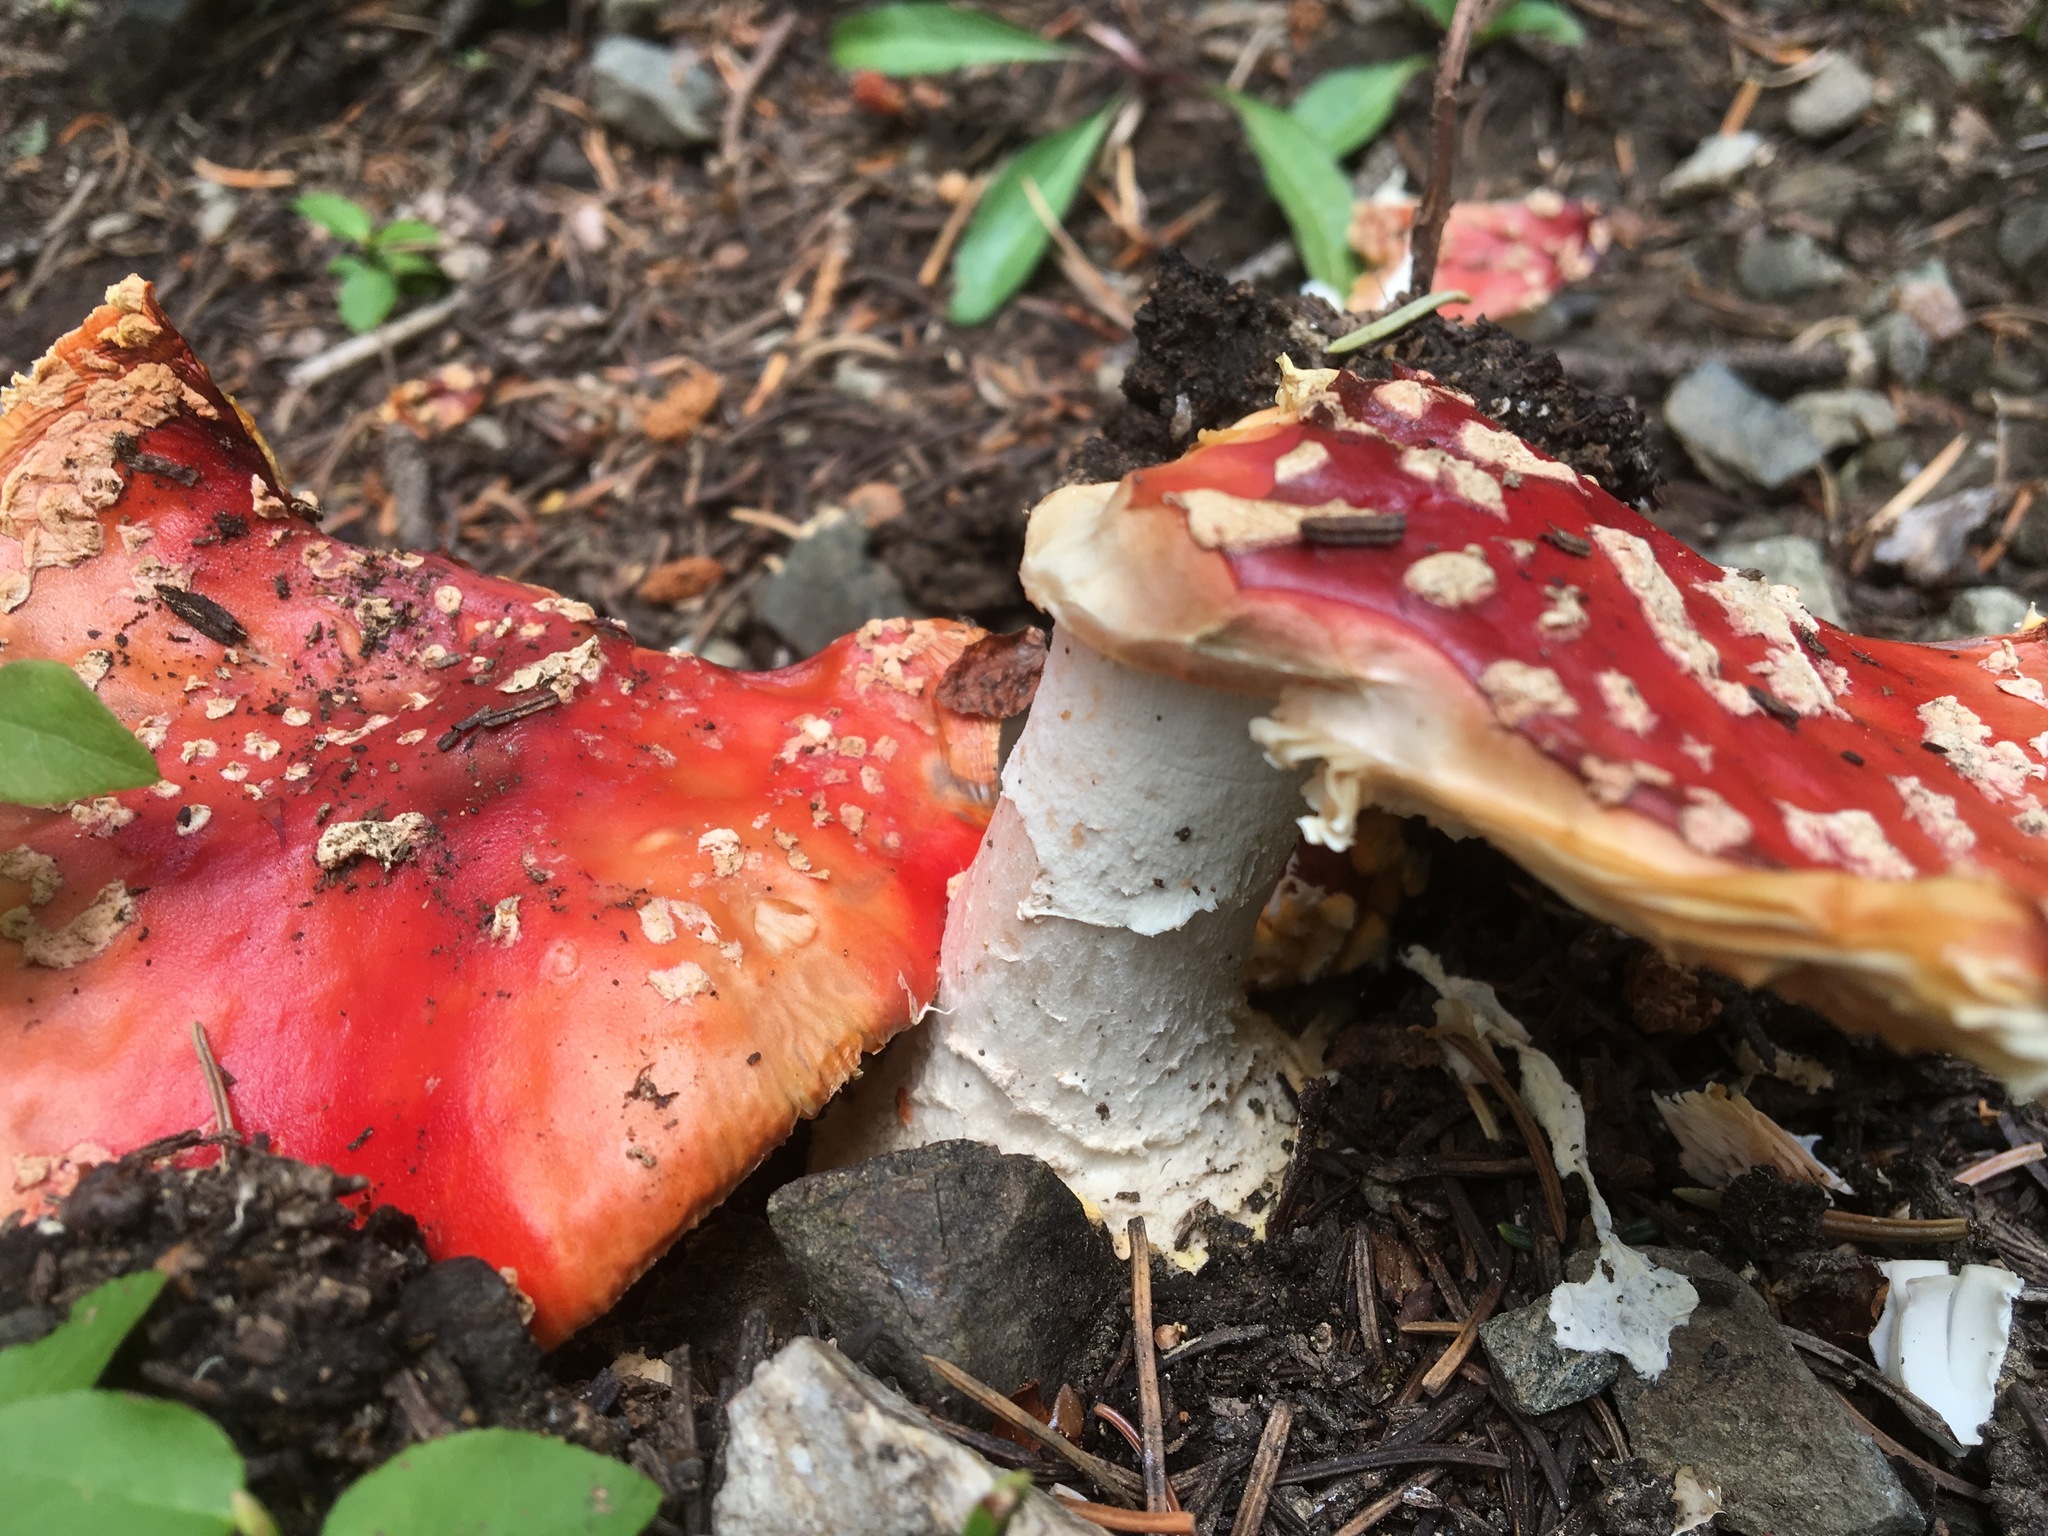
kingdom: Fungi
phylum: Basidiomycota
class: Agaricomycetes
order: Agaricales
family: Amanitaceae
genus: Amanita
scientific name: Amanita muscaria
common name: Fly agaric
